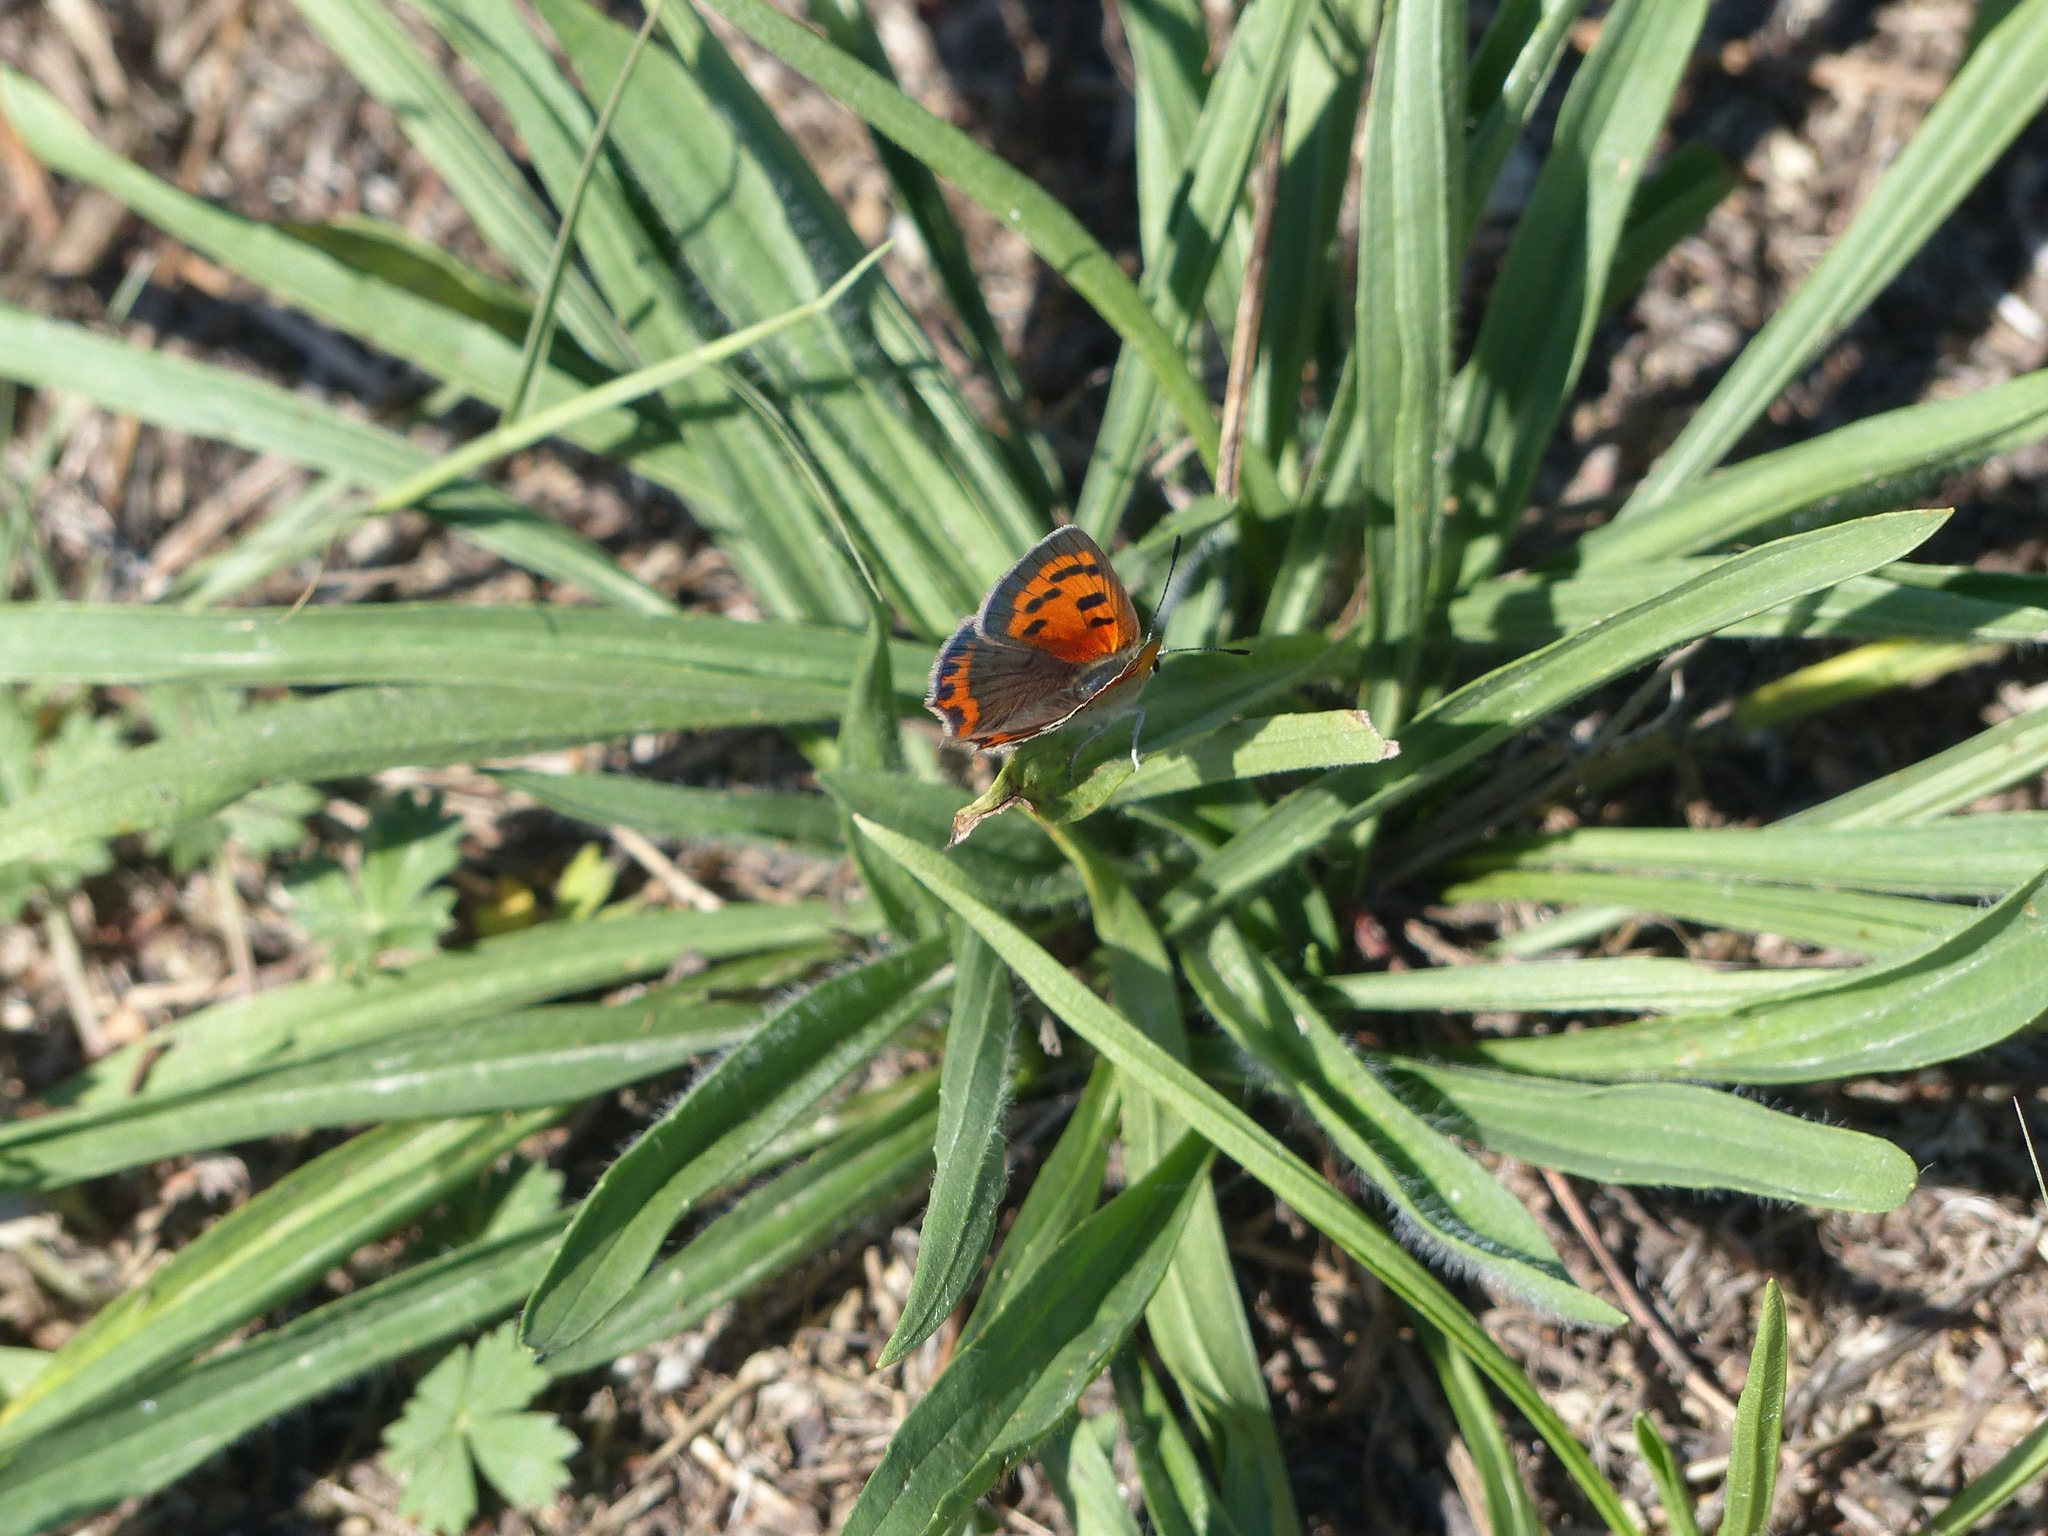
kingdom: Animalia
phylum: Arthropoda
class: Insecta
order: Lepidoptera
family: Lycaenidae
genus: Lycaena
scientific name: Lycaena hypophlaeas
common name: American copper
